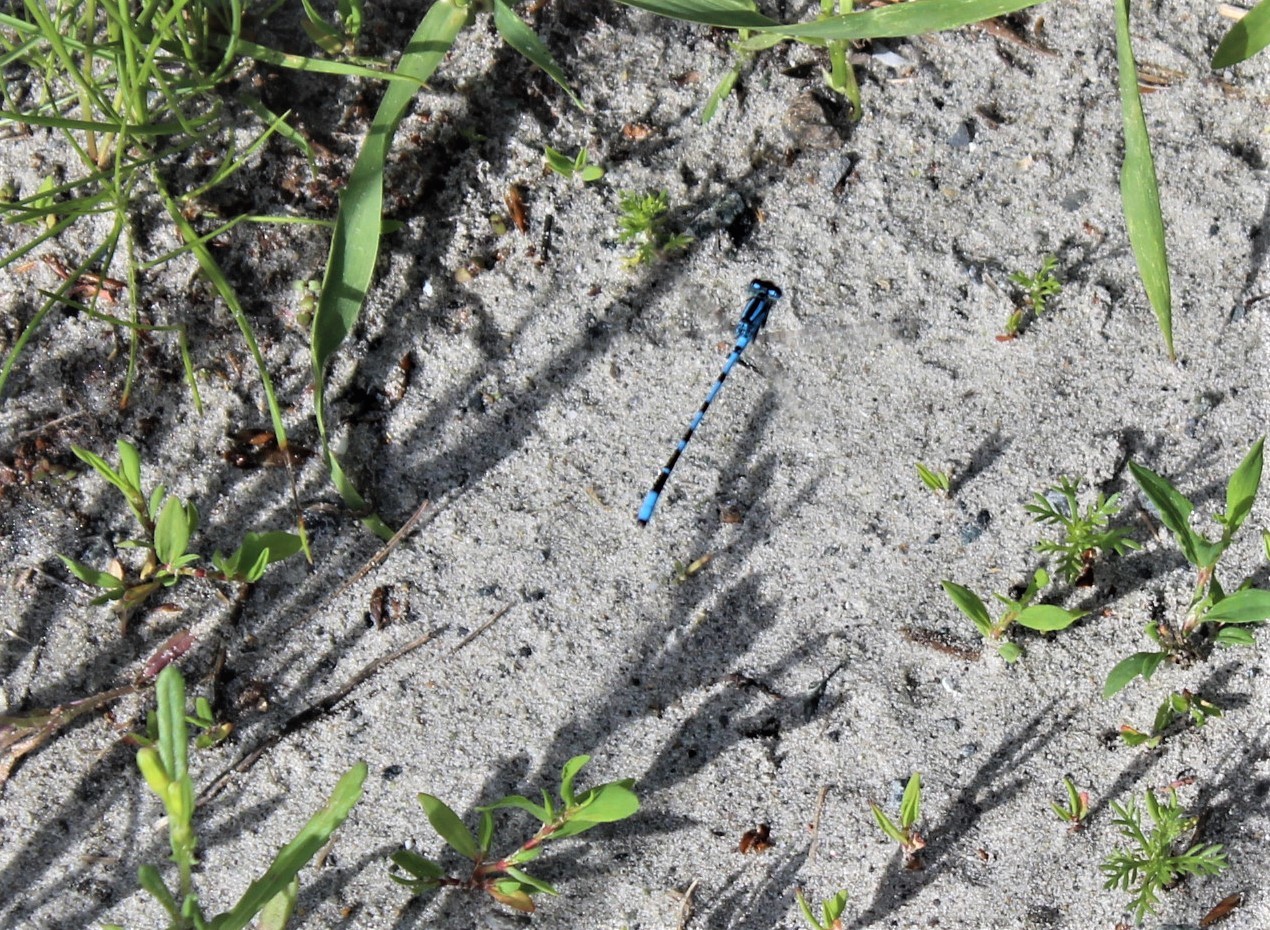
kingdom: Animalia
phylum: Arthropoda
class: Insecta
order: Odonata
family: Coenagrionidae
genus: Enallagma
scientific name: Enallagma cyathigerum
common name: Common blue damselfly
